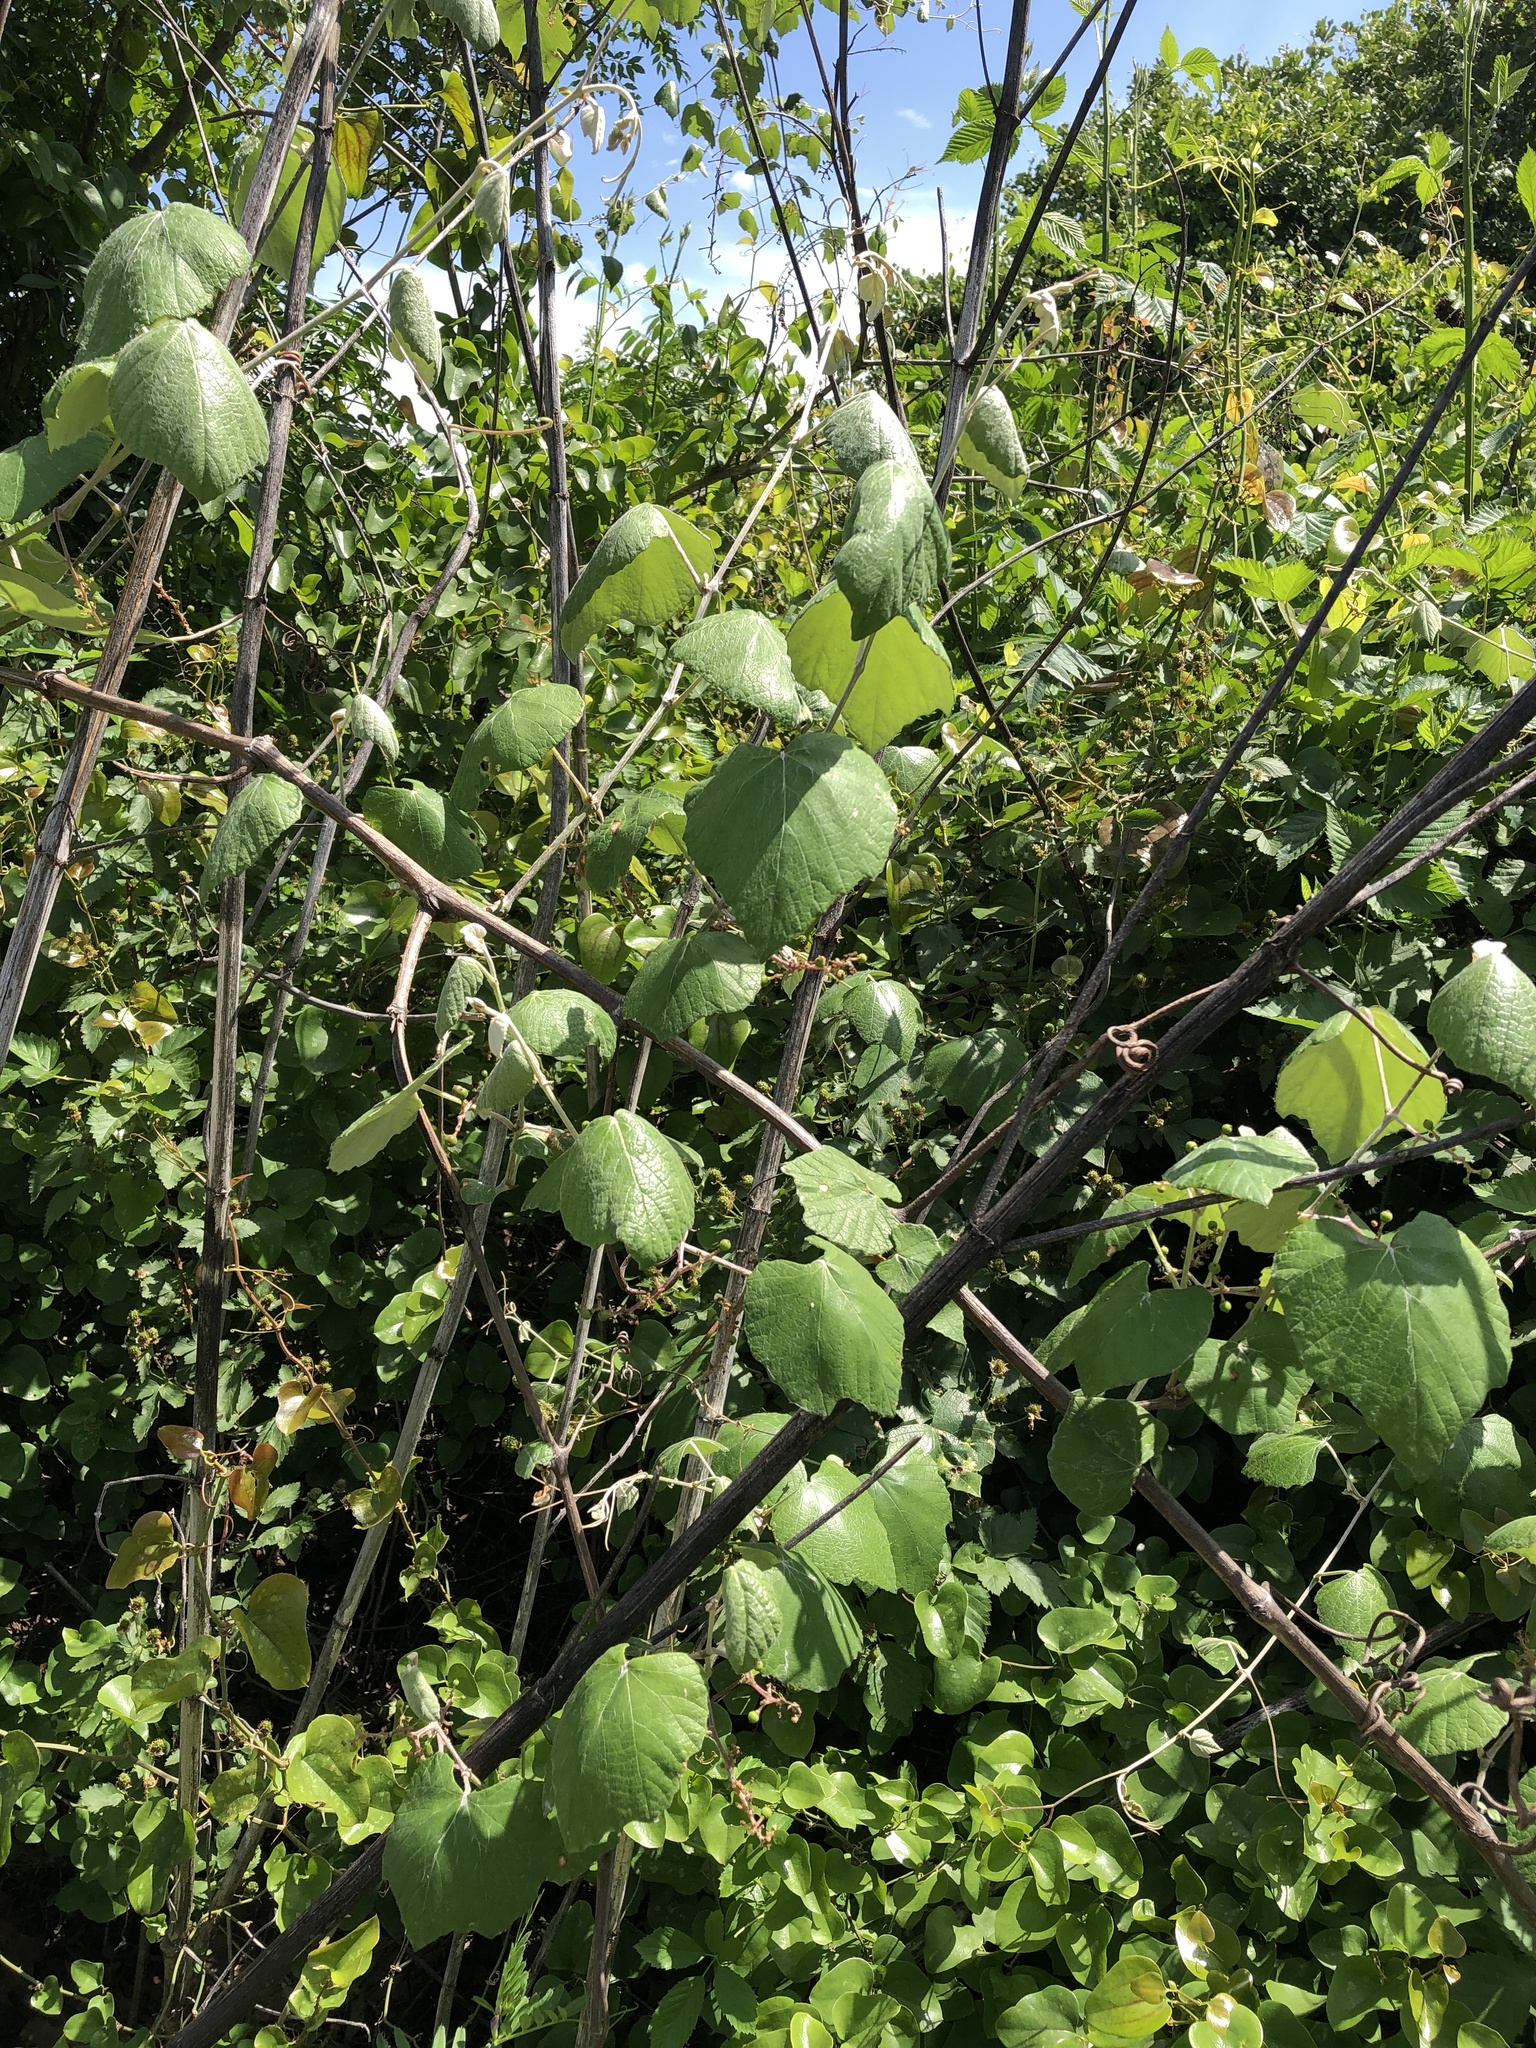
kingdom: Plantae
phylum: Tracheophyta
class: Magnoliopsida
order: Vitales
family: Vitaceae
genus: Vitis
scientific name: Vitis mustangensis
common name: Mustang grape
